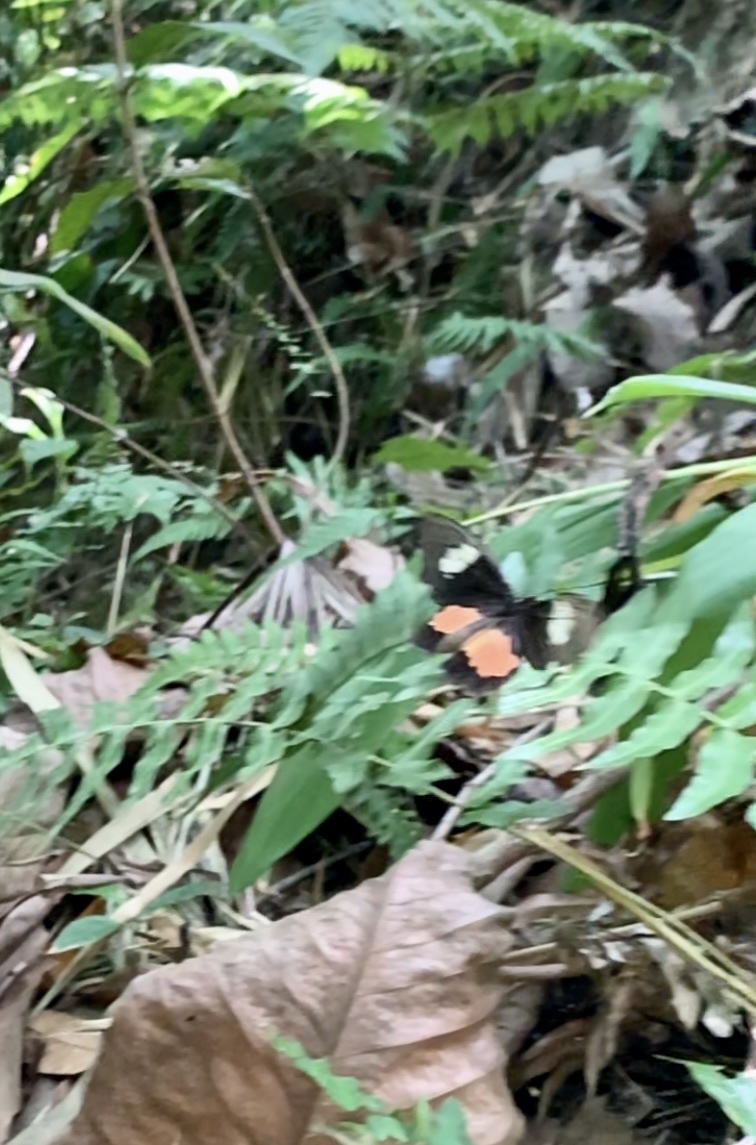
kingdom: Animalia
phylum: Arthropoda
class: Insecta
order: Lepidoptera
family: Papilionidae
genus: Parides
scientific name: Parides panares
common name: Wedge-spotted cattleheart
